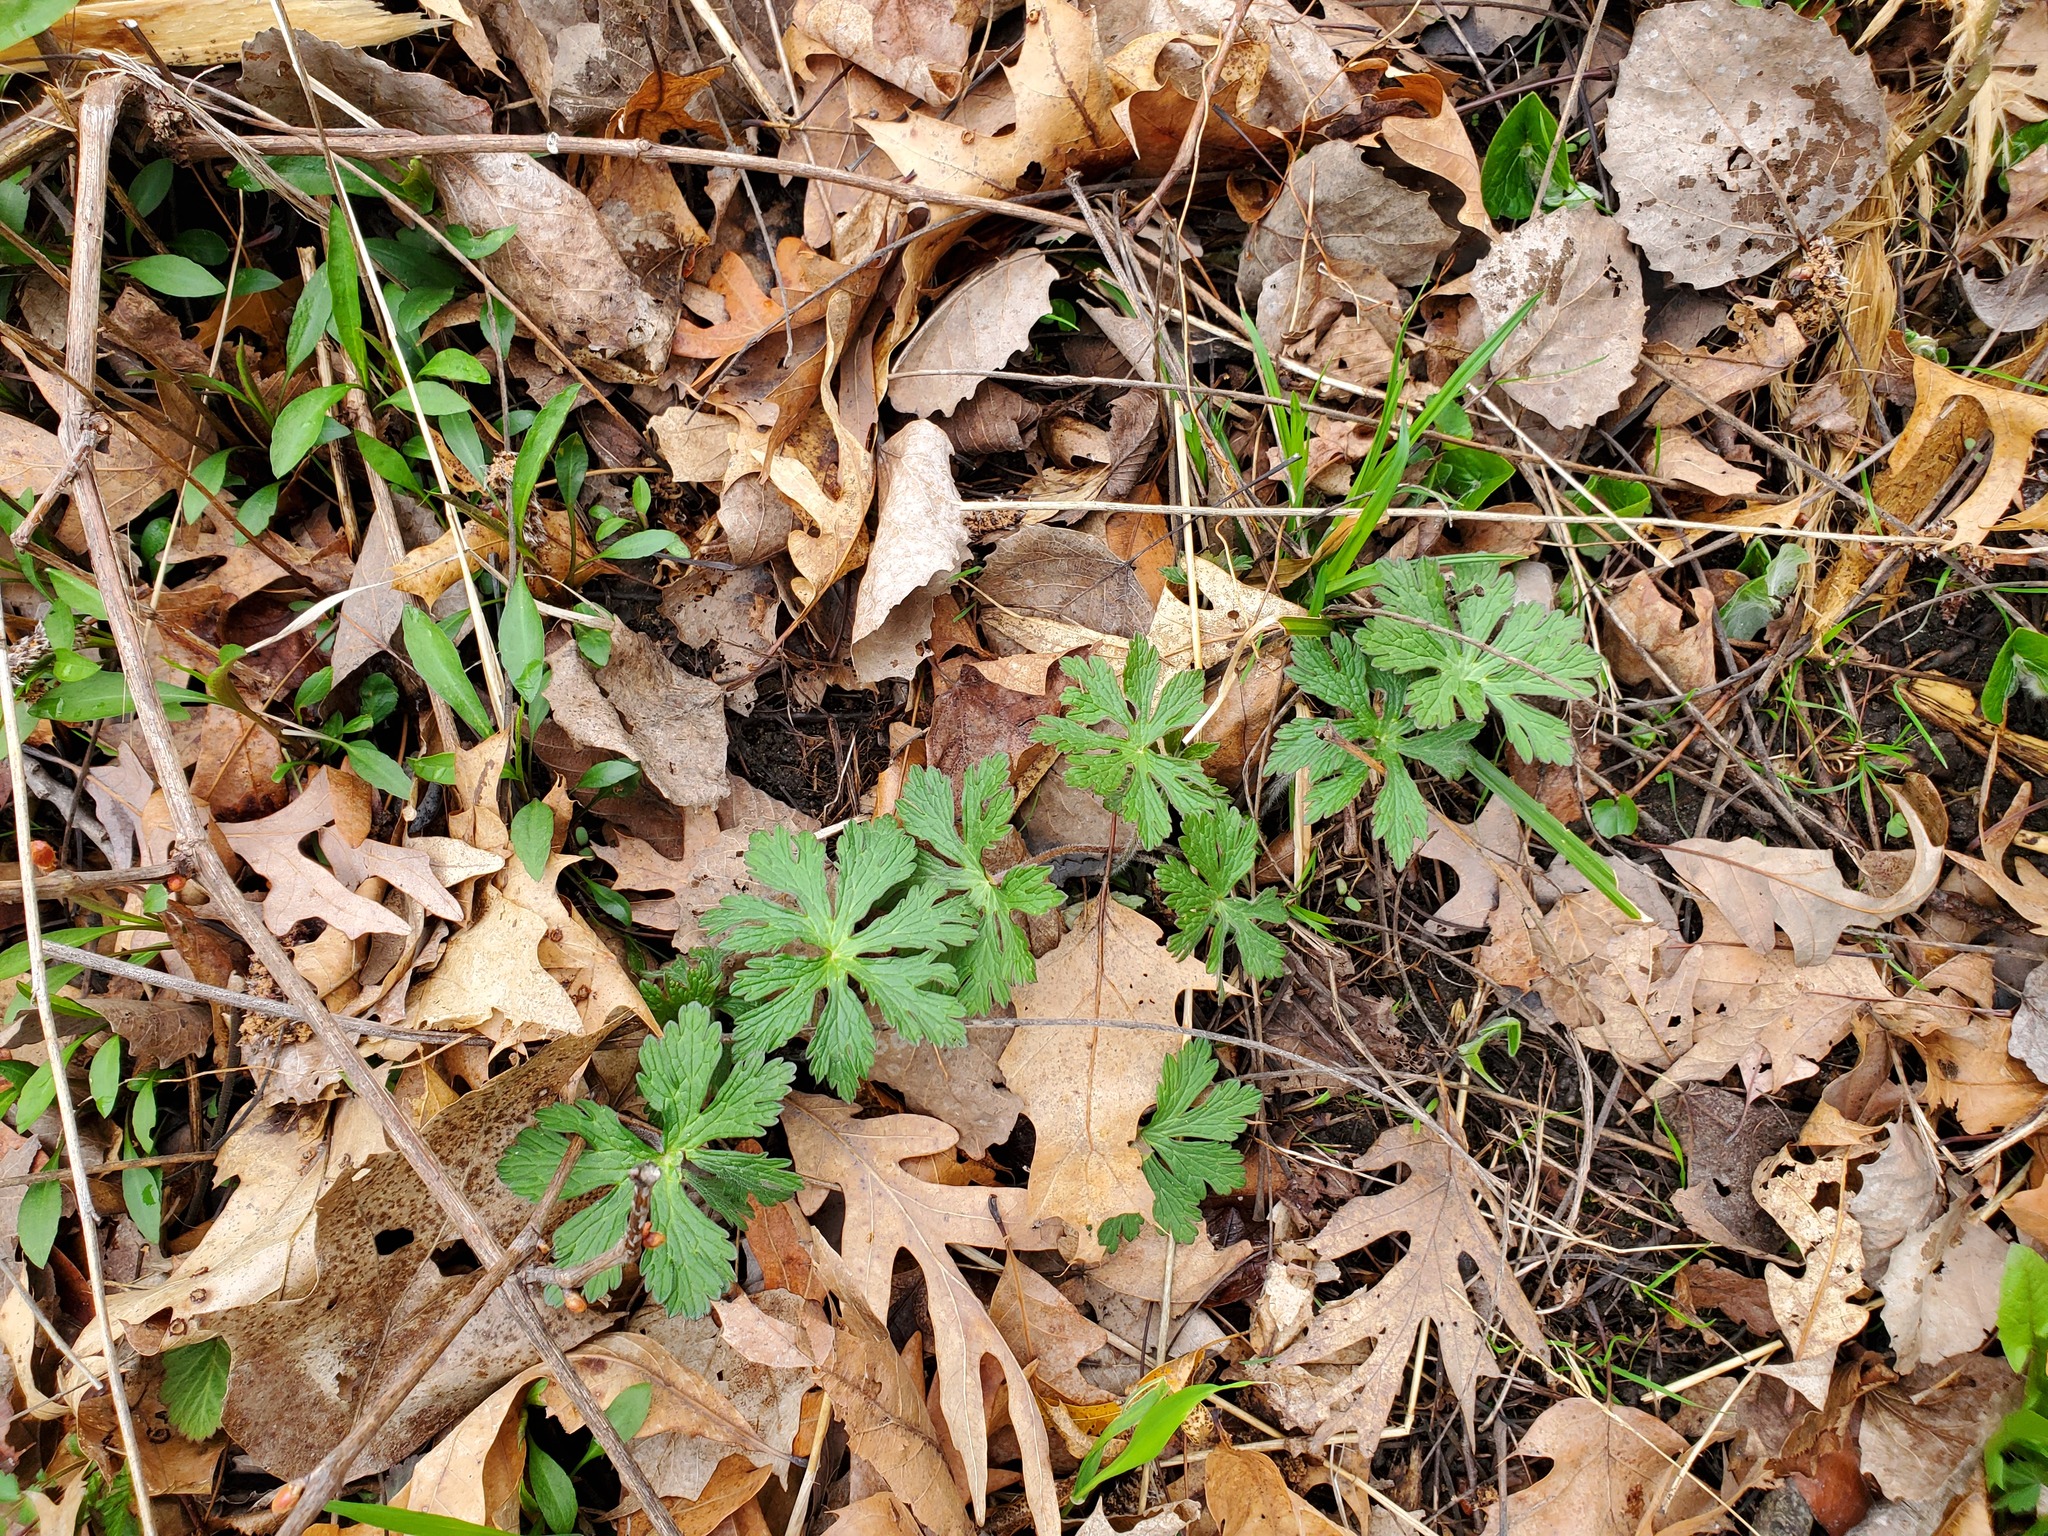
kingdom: Plantae
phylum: Tracheophyta
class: Magnoliopsida
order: Geraniales
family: Geraniaceae
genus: Geranium
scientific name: Geranium maculatum
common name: Spotted geranium
